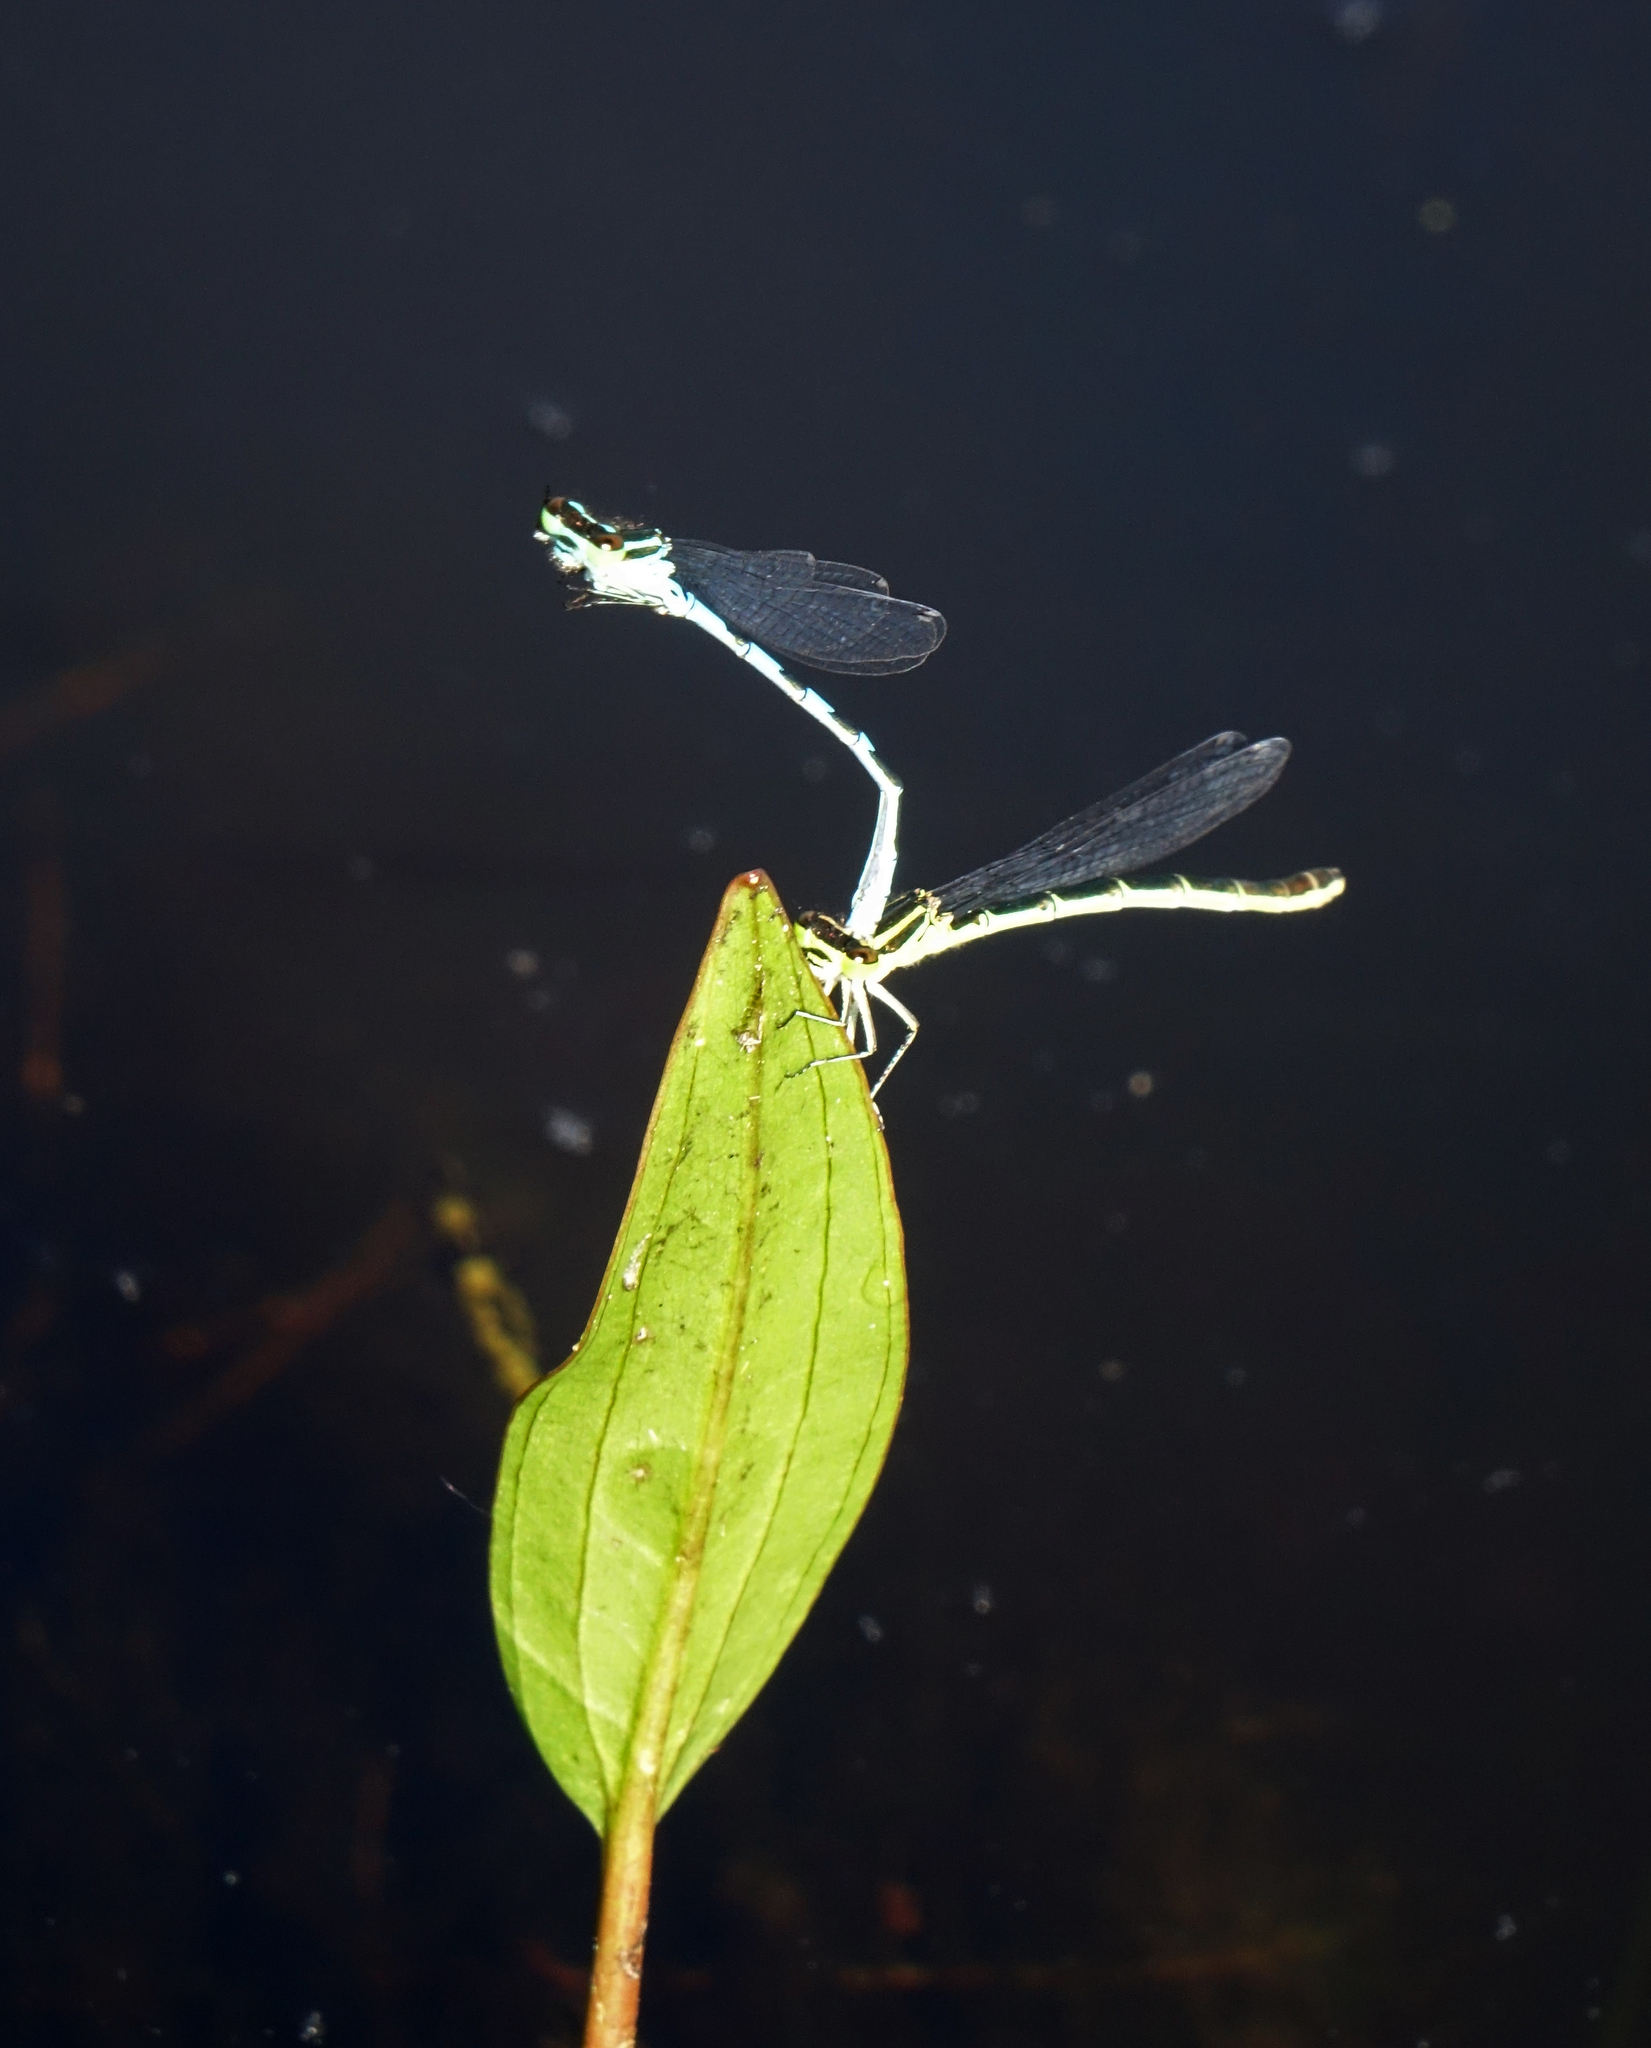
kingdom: Animalia
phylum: Arthropoda
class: Insecta
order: Odonata
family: Coenagrionidae
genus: Coenagrion
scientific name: Coenagrion hastulatum
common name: Spearhead bluet
